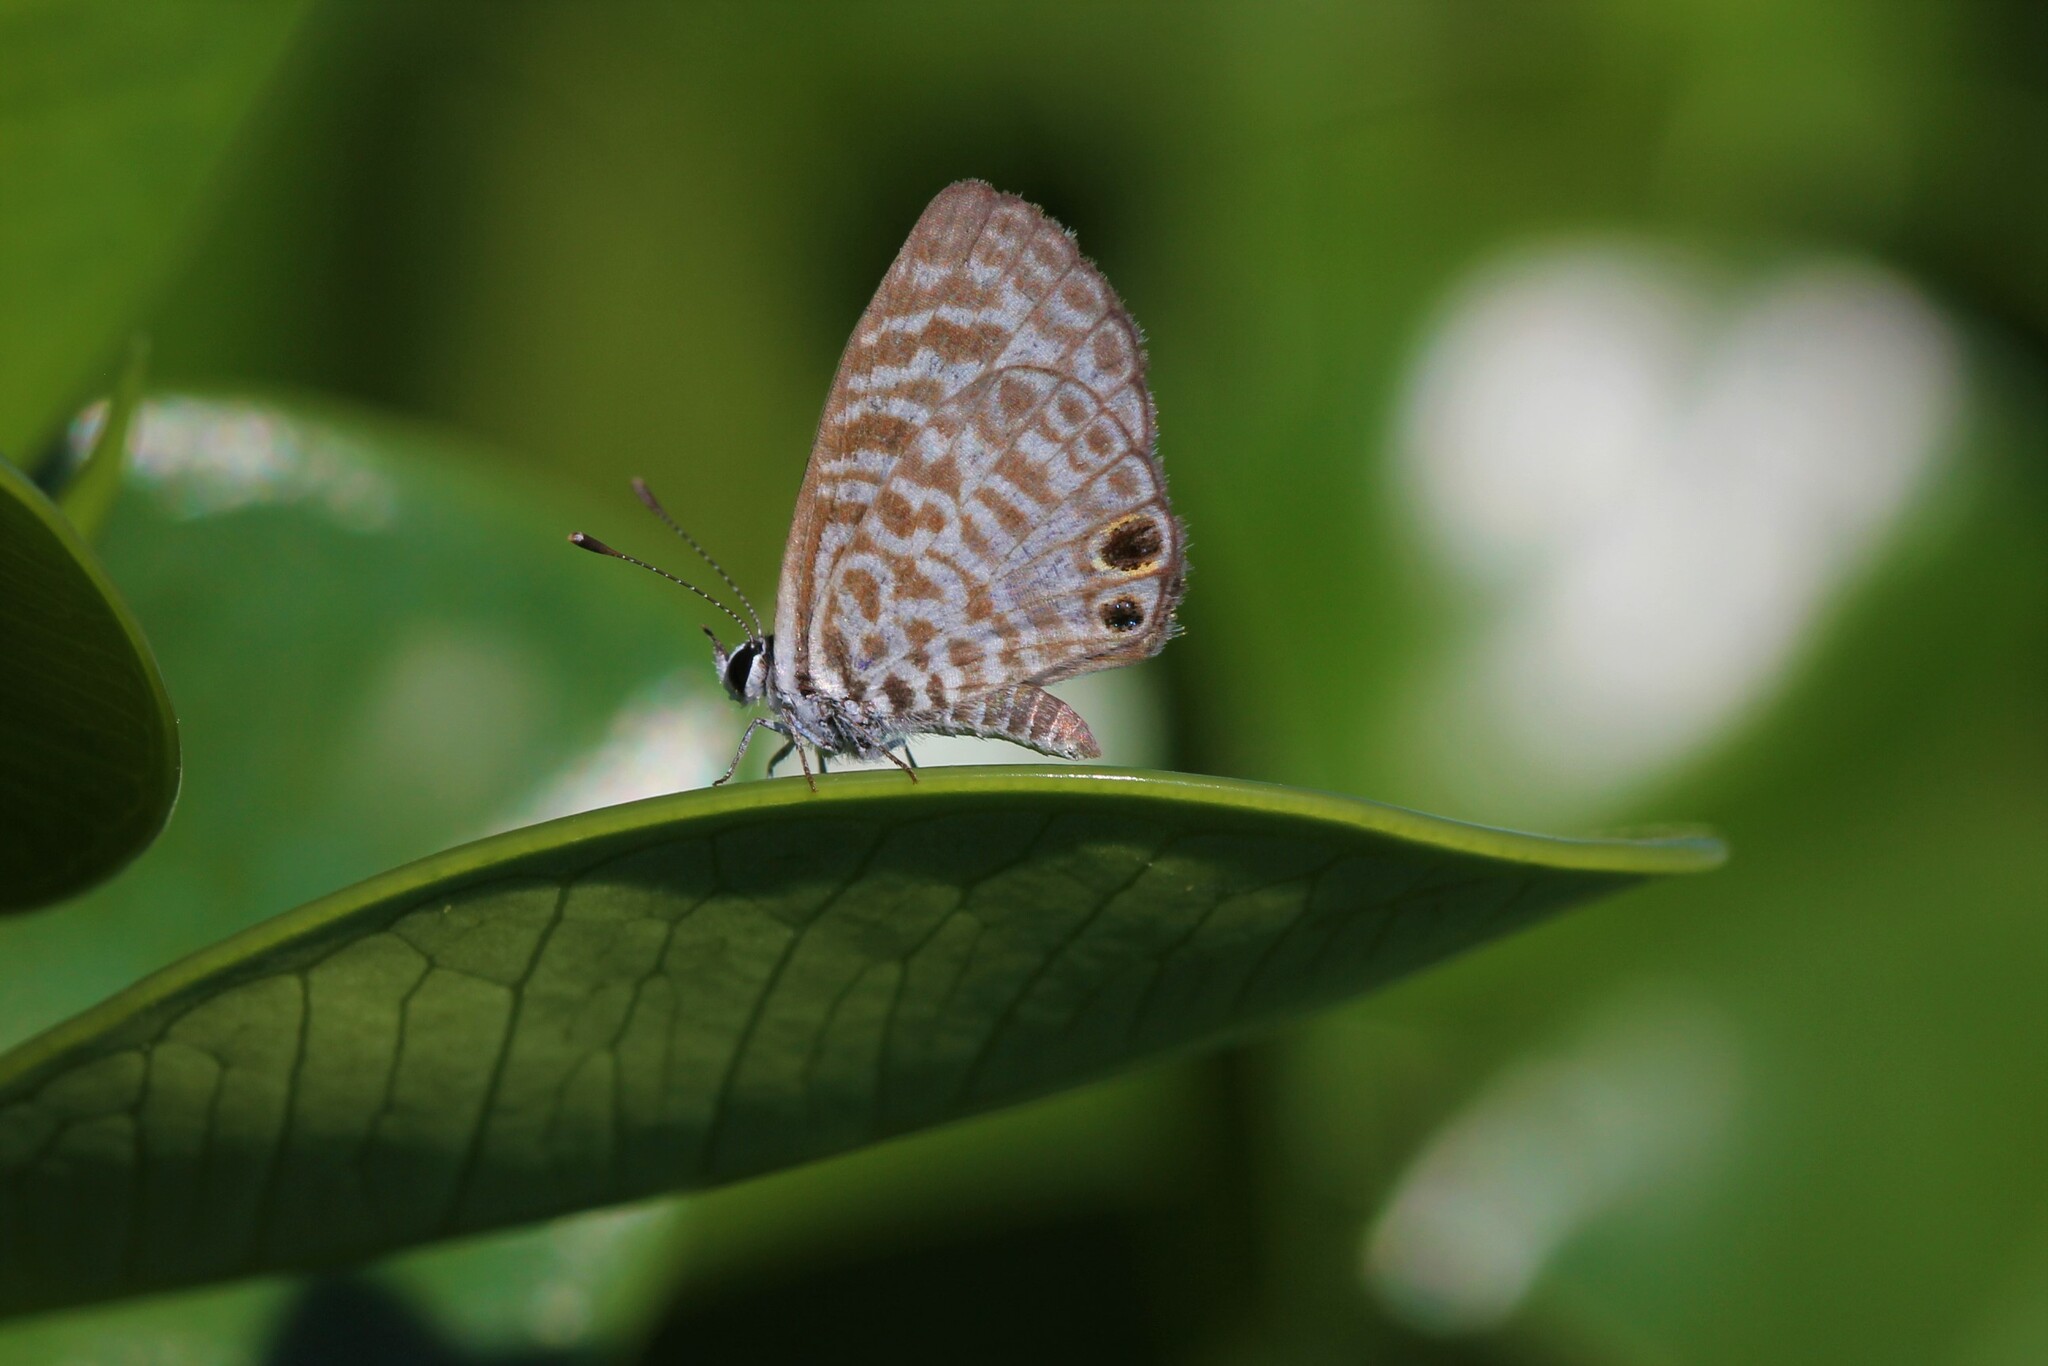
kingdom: Animalia
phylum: Arthropoda
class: Insecta
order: Lepidoptera
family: Lycaenidae
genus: Leptotes
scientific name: Leptotes cassius
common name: Cassius blue
